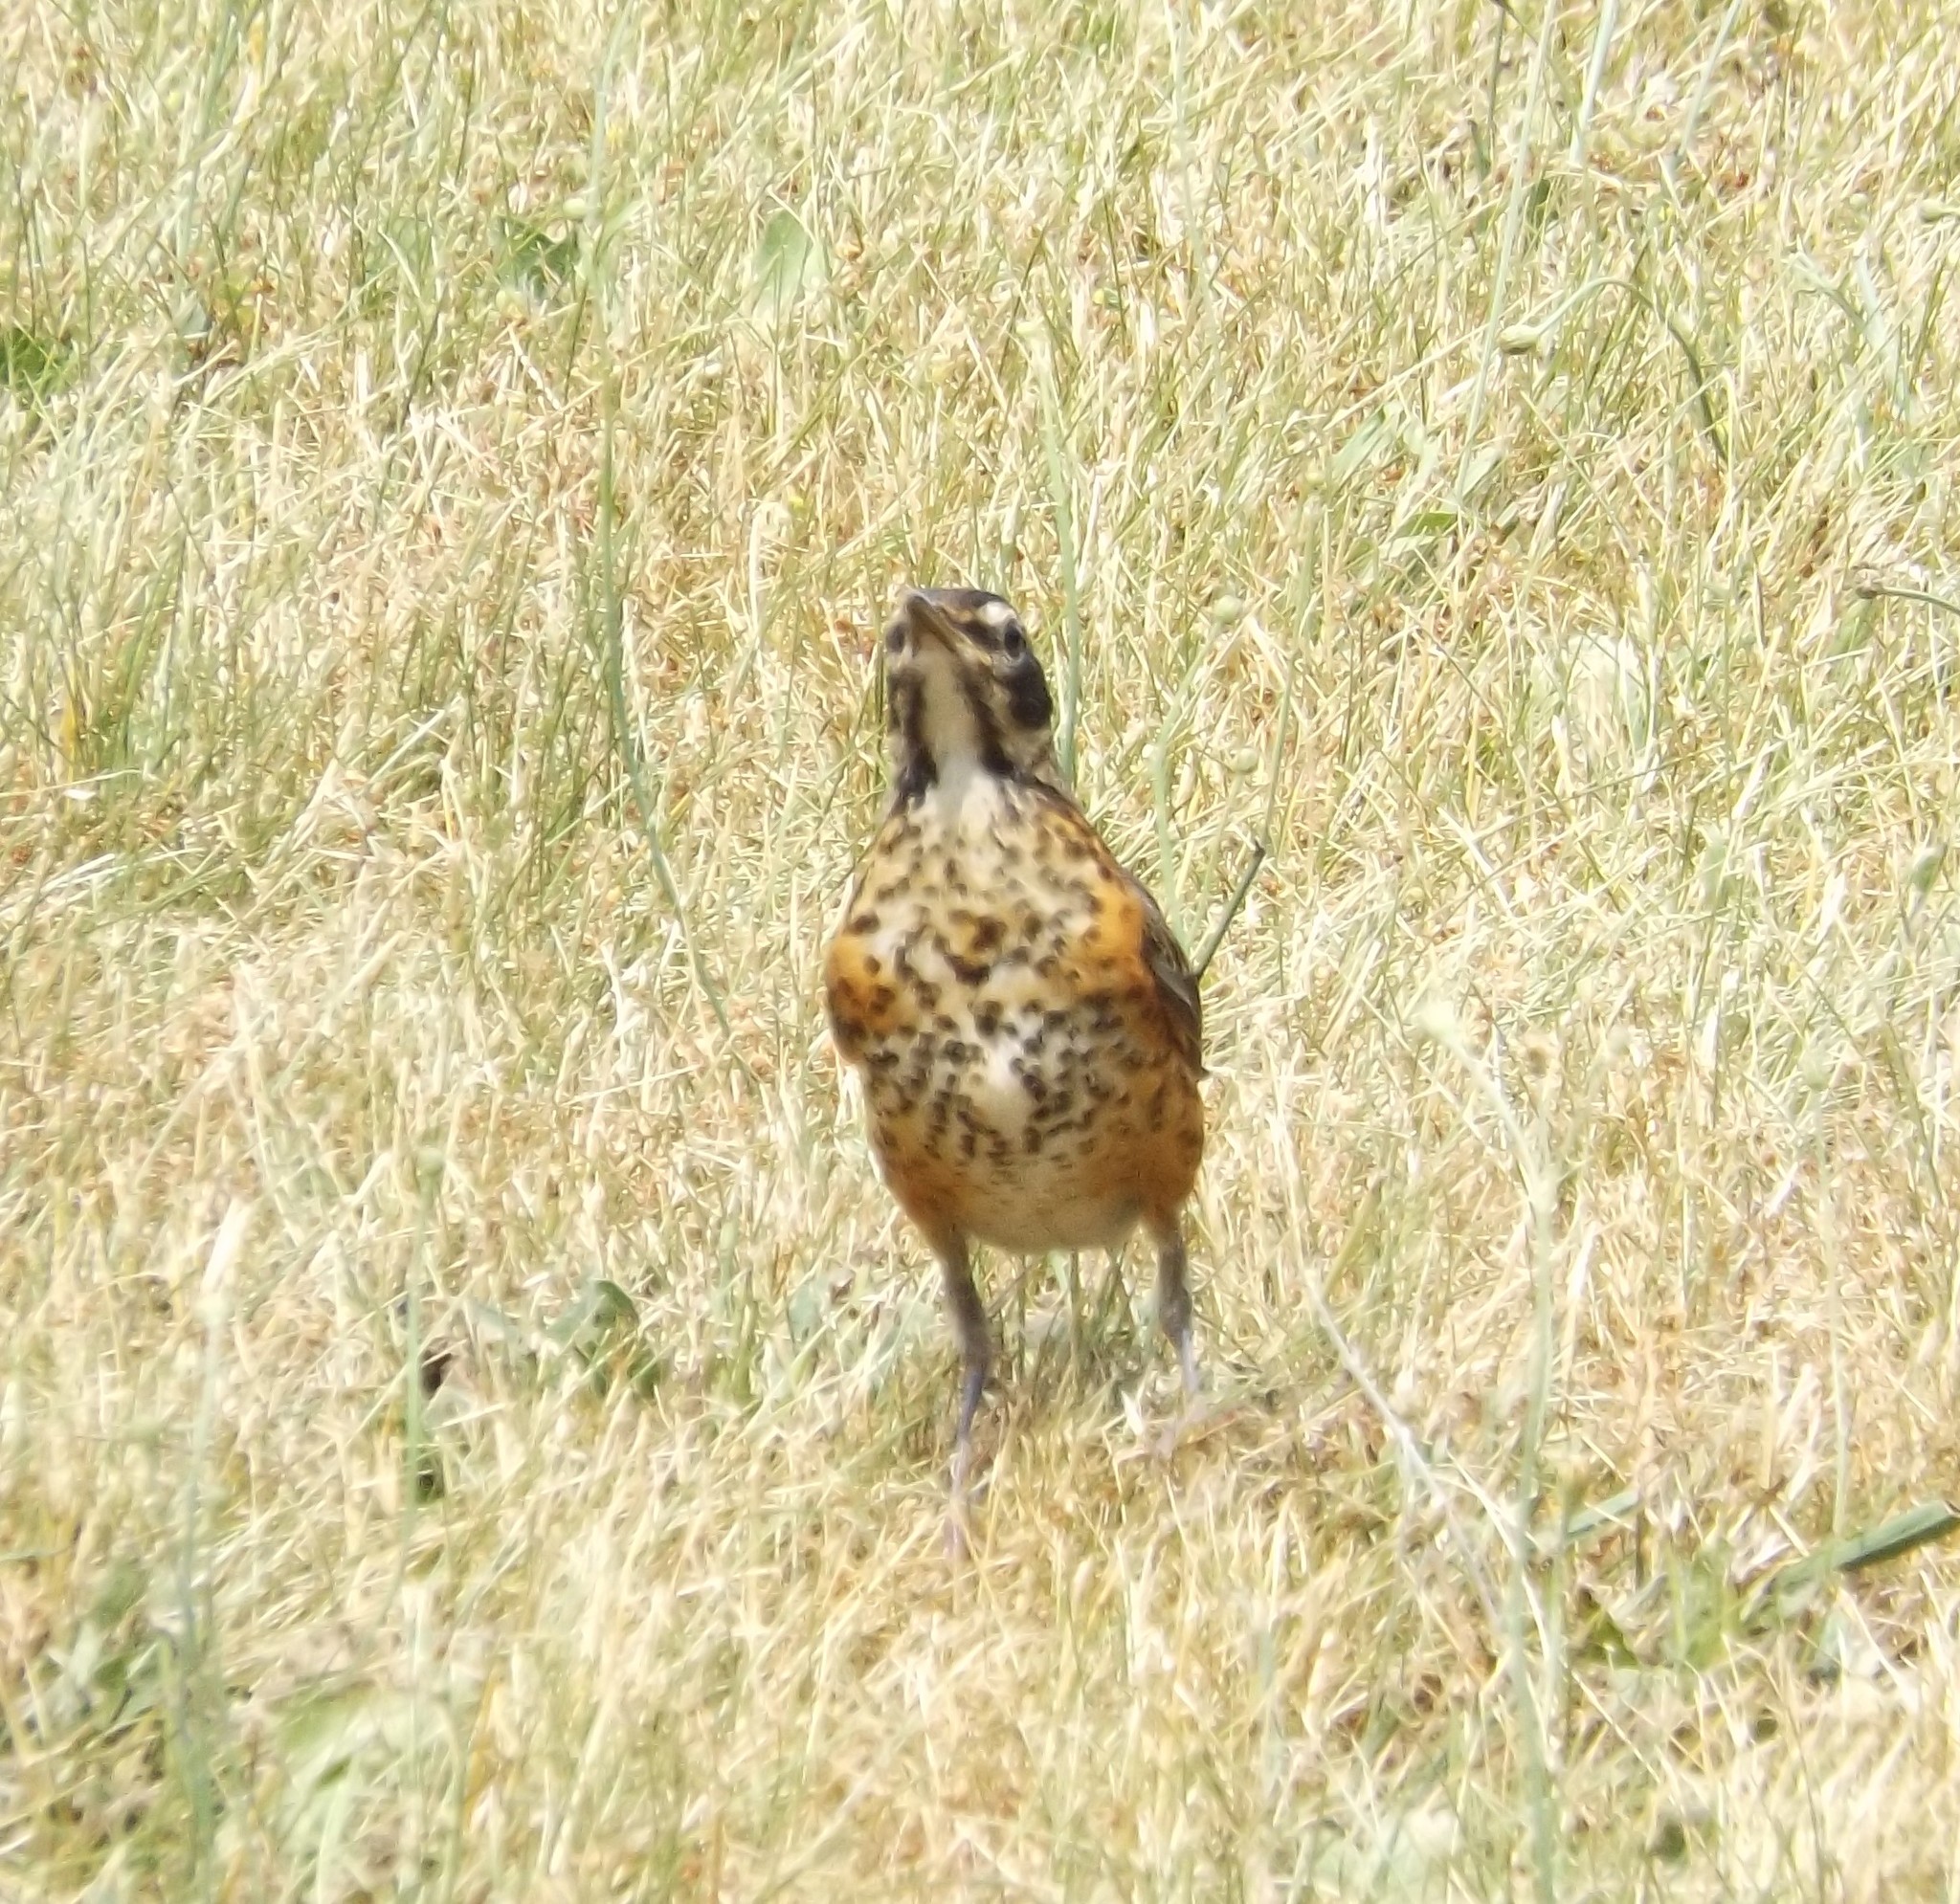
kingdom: Animalia
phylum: Chordata
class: Aves
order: Passeriformes
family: Turdidae
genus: Turdus
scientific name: Turdus migratorius
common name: American robin
